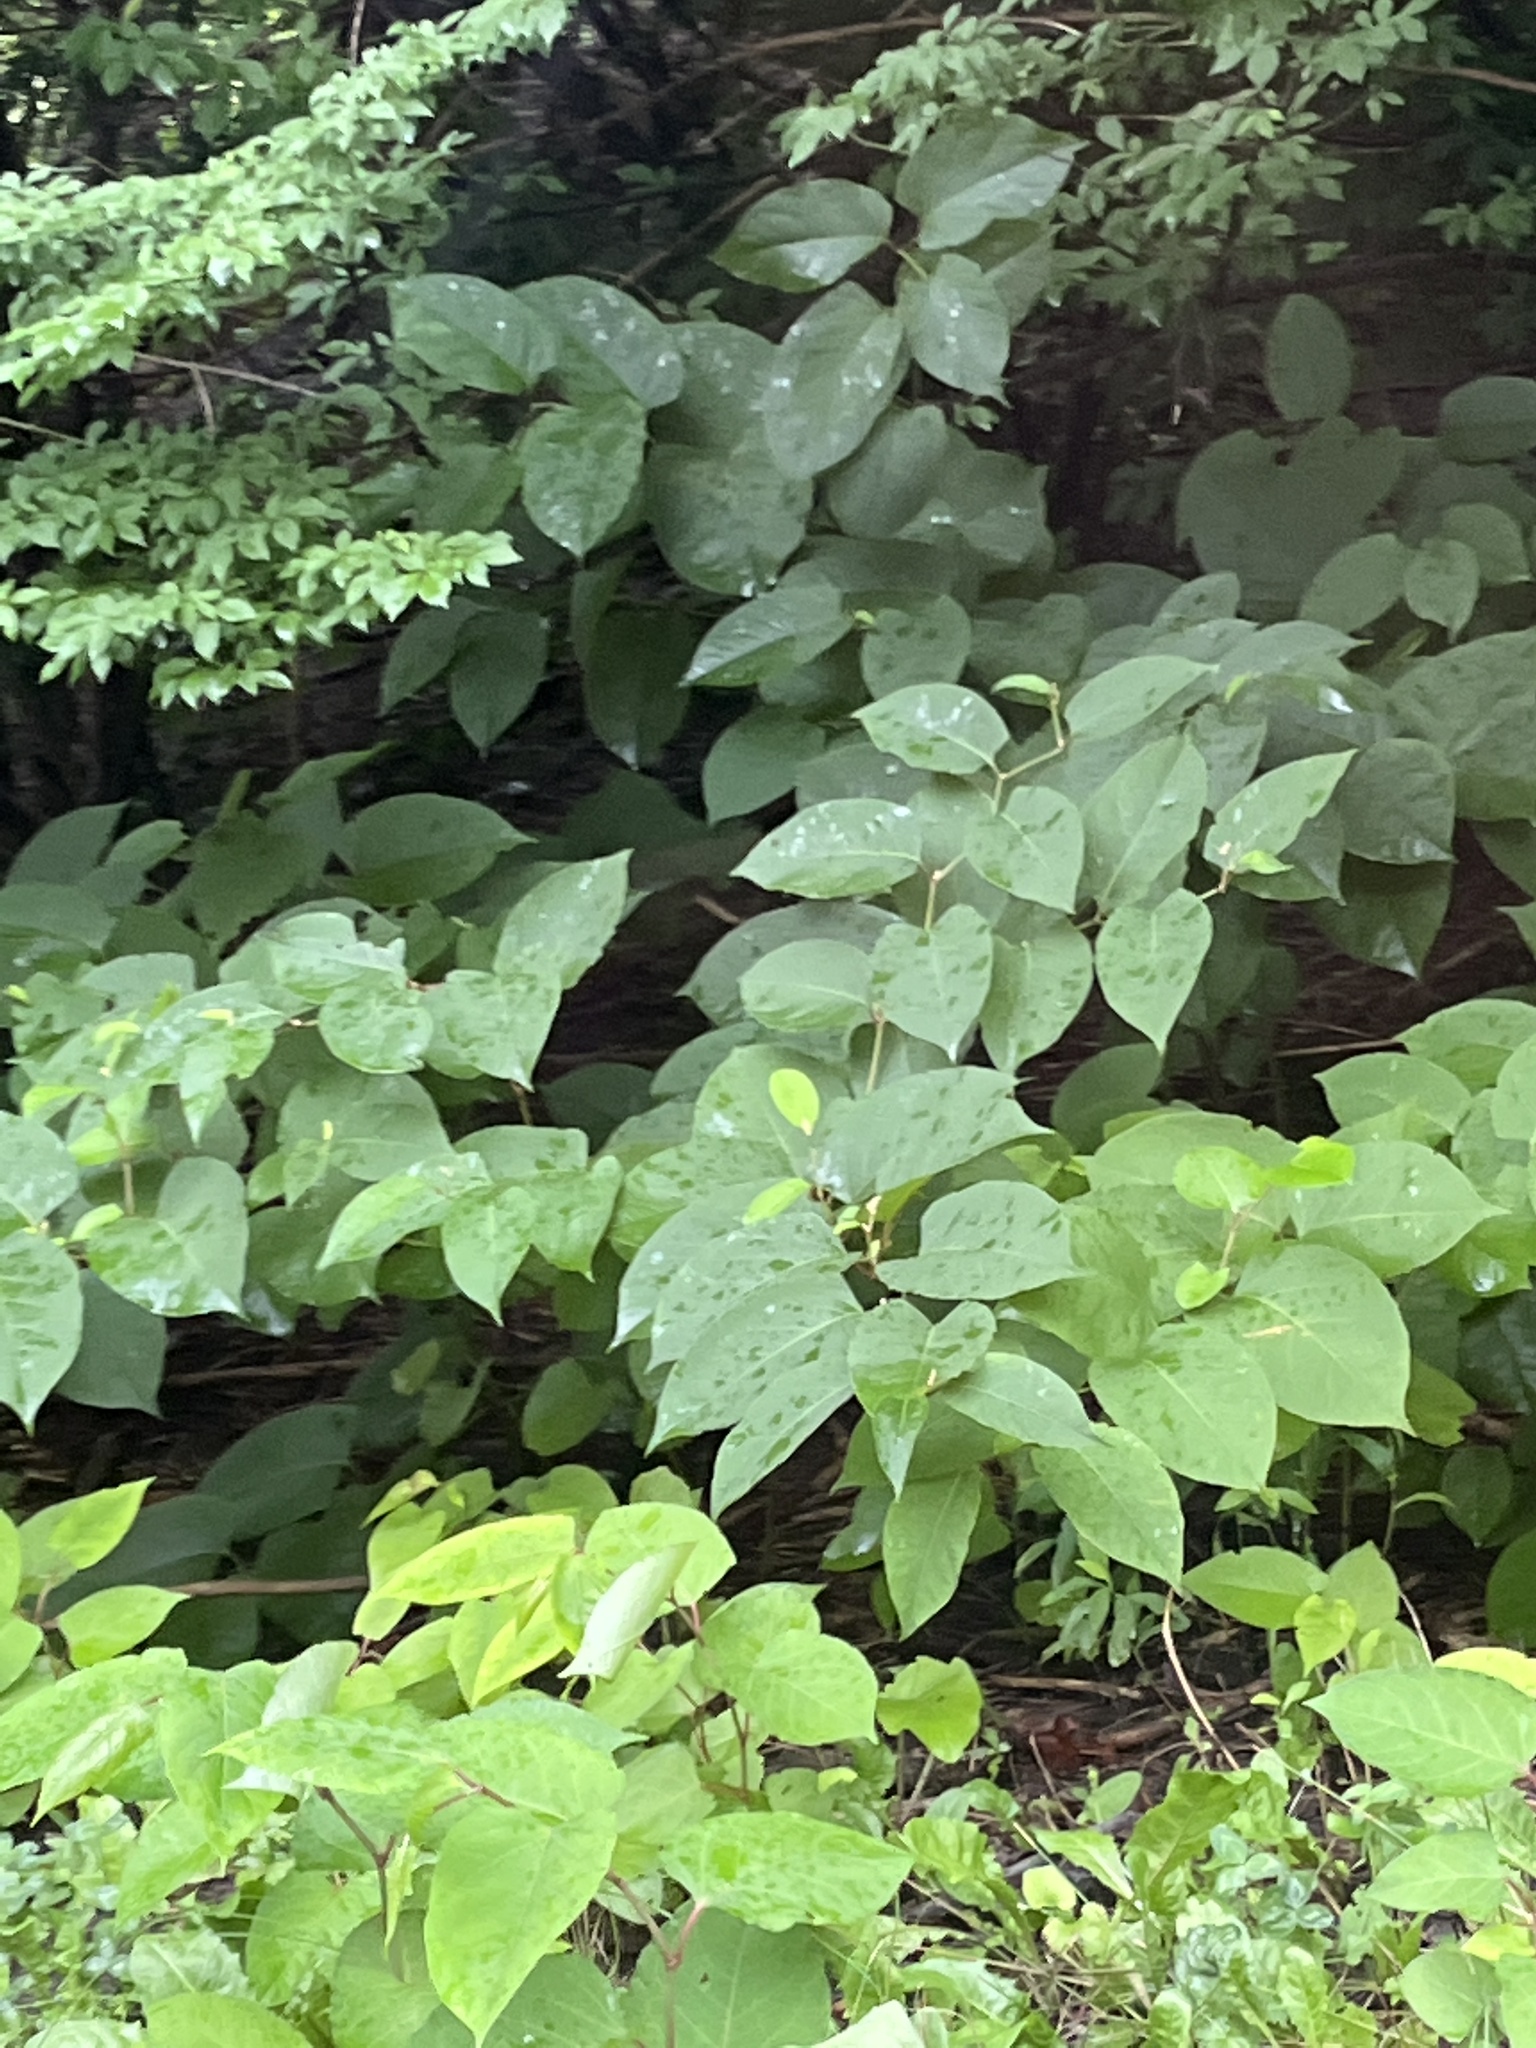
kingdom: Plantae
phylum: Tracheophyta
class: Magnoliopsida
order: Caryophyllales
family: Polygonaceae
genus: Reynoutria
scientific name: Reynoutria japonica
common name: Japanese knotweed
